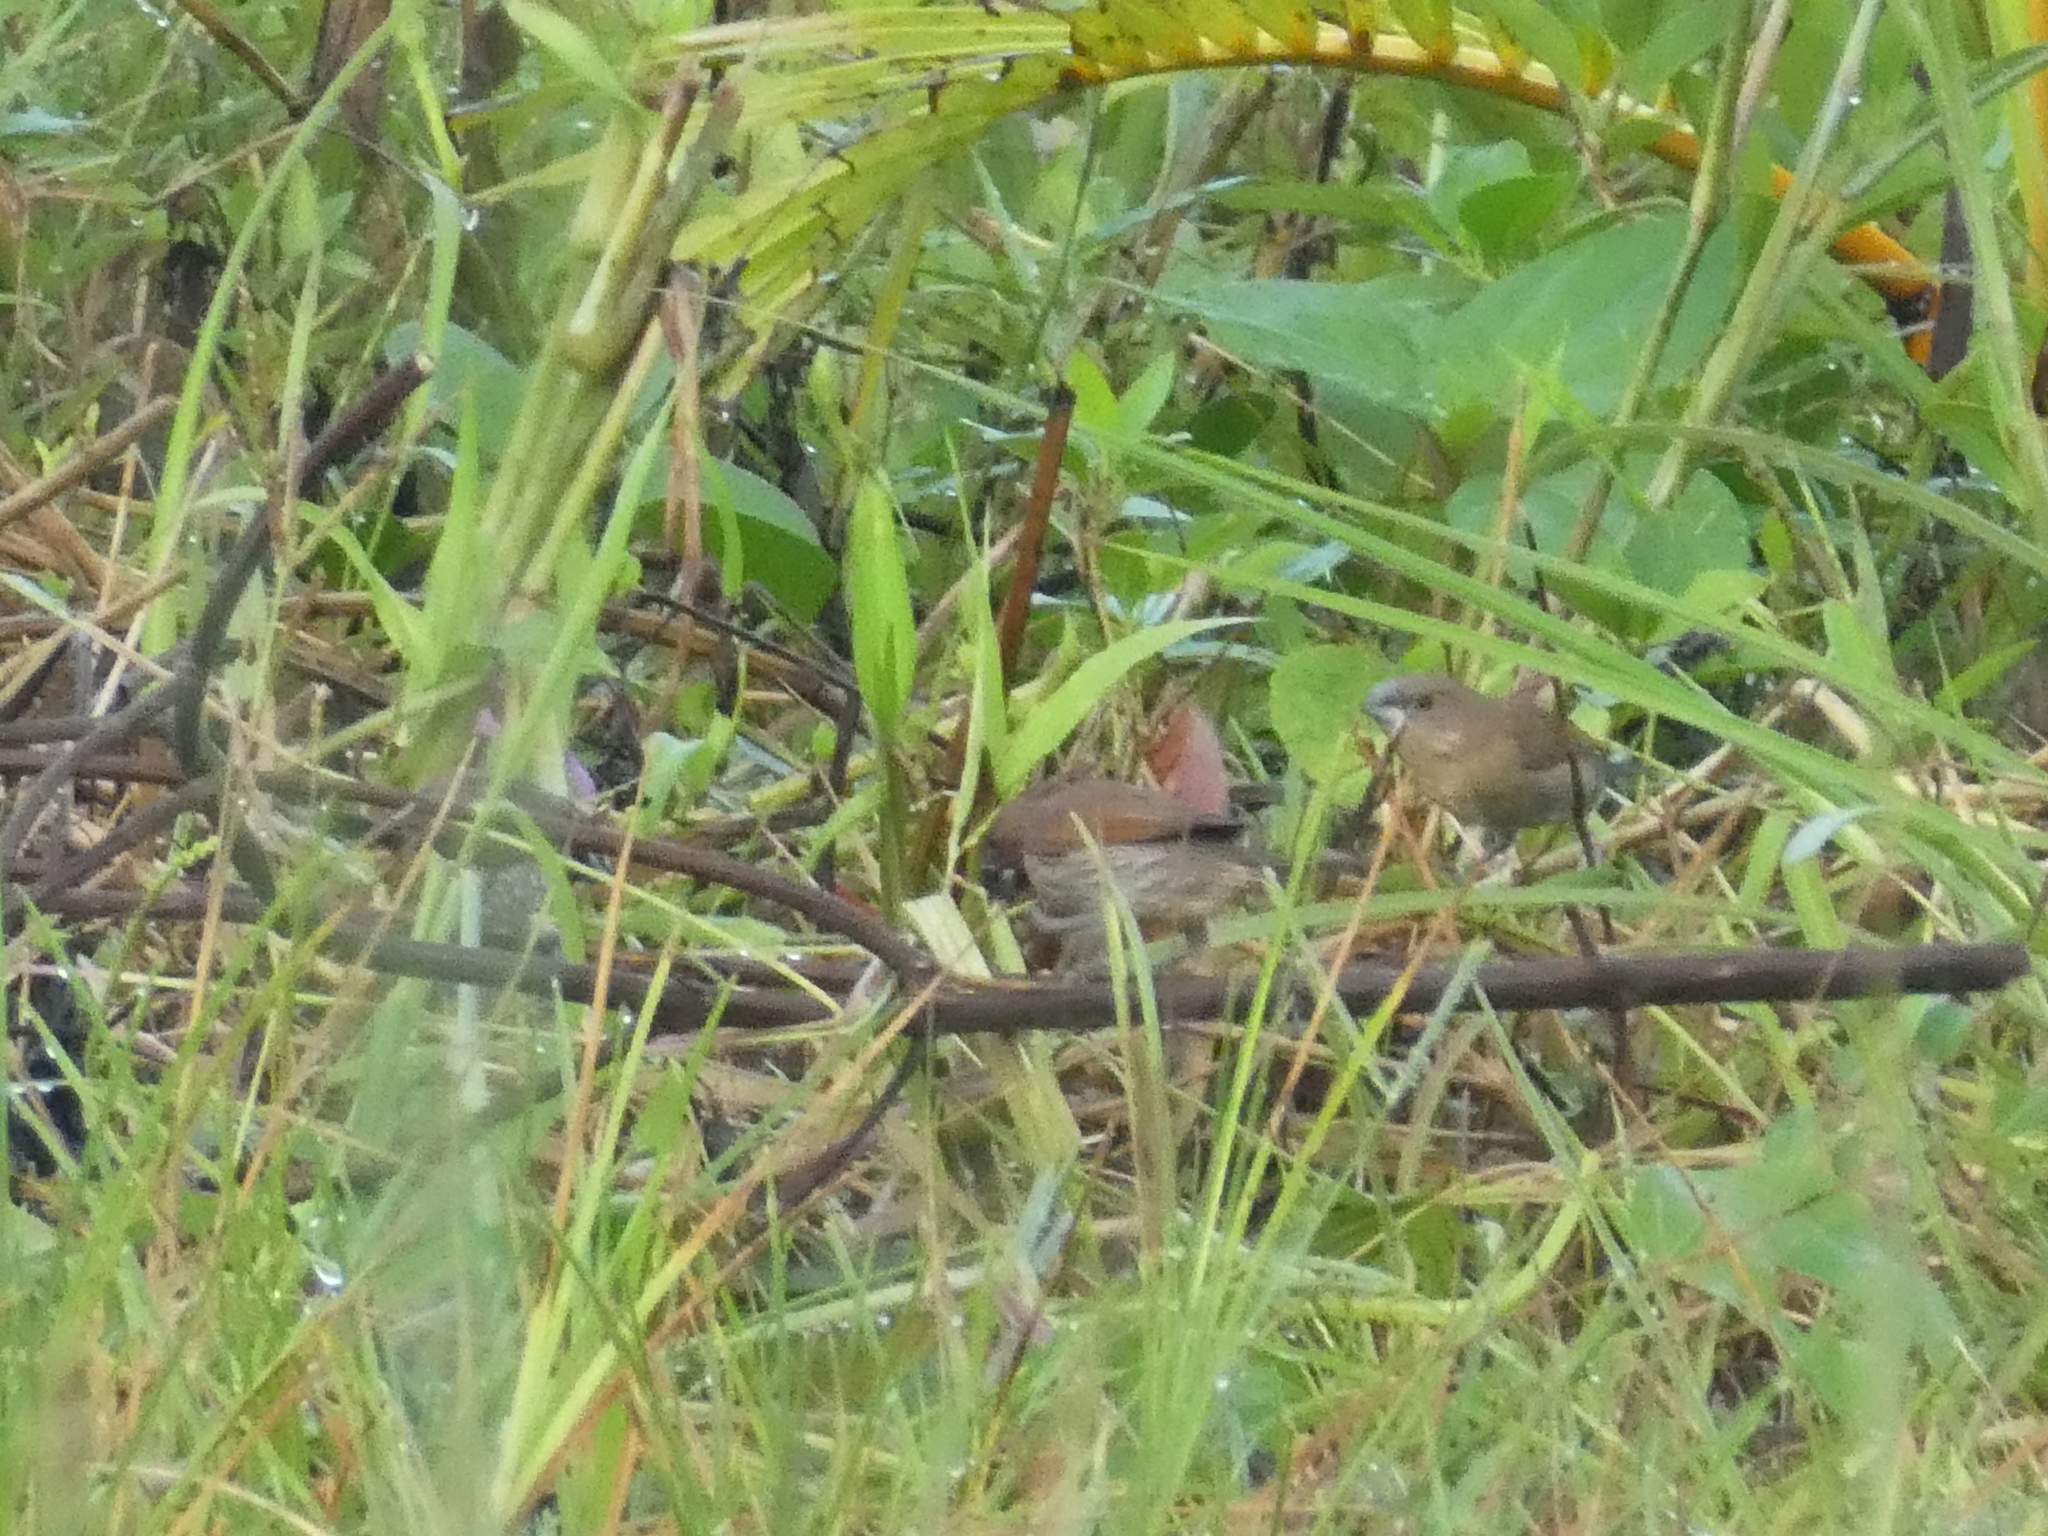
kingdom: Animalia
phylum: Chordata
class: Aves
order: Passeriformes
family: Estrildidae
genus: Lonchura
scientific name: Lonchura punctulata
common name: Scaly-breasted munia
